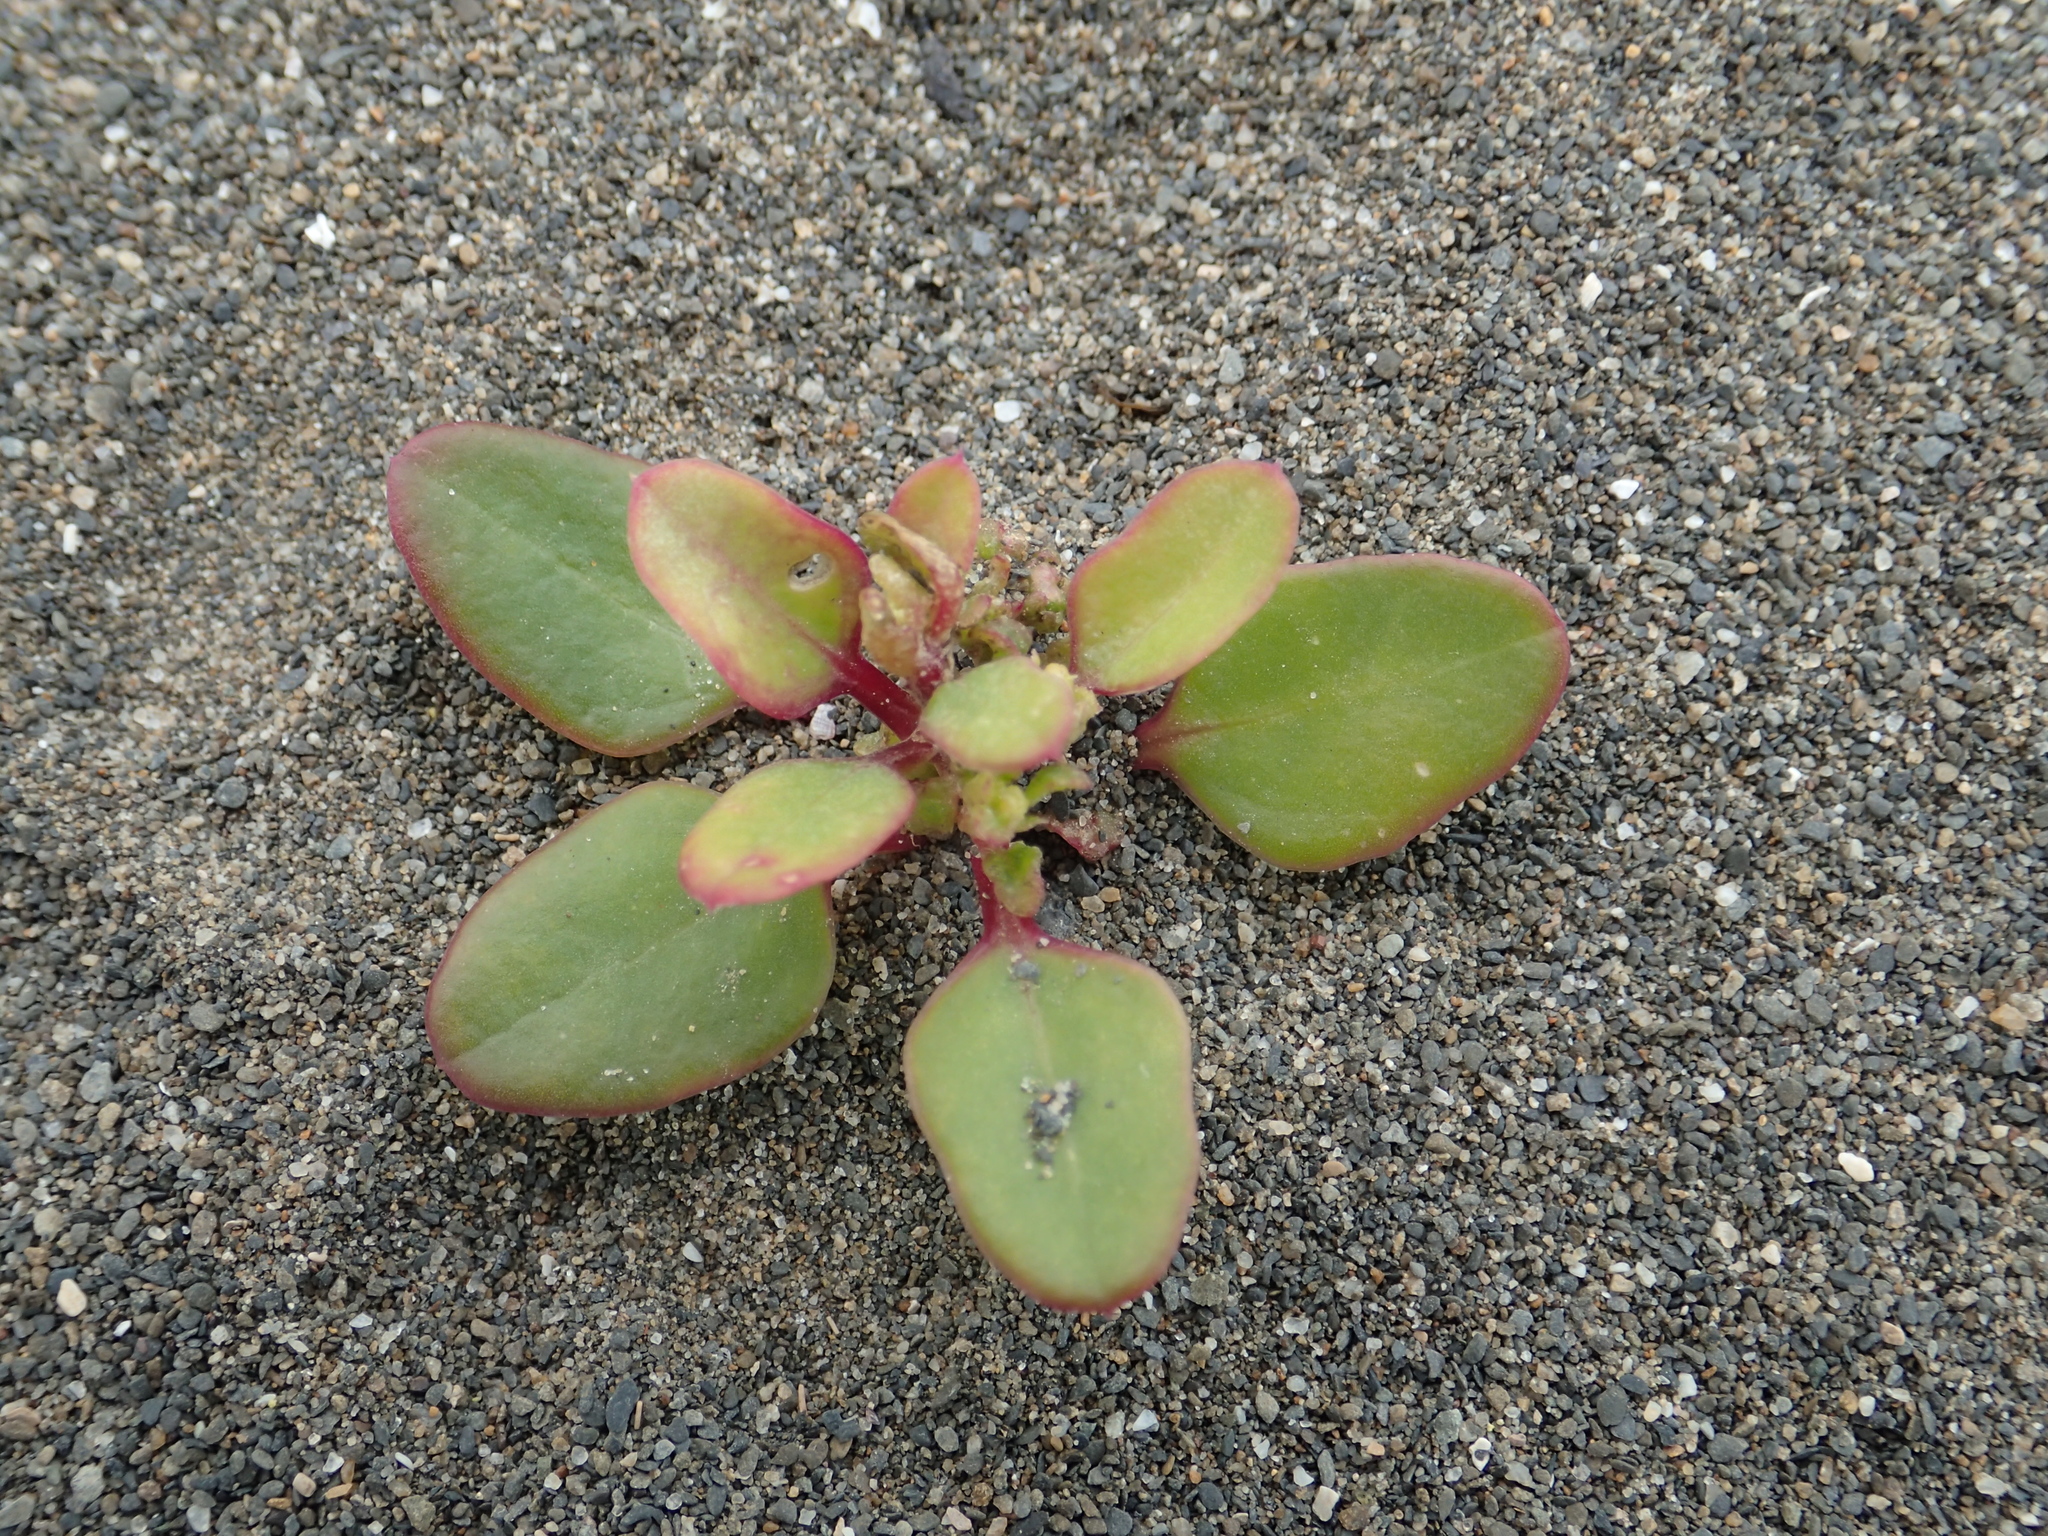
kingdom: Plantae
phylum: Tracheophyta
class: Magnoliopsida
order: Caryophyllales
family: Amaranthaceae
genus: Chenopodium
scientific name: Chenopodium acuminatum
